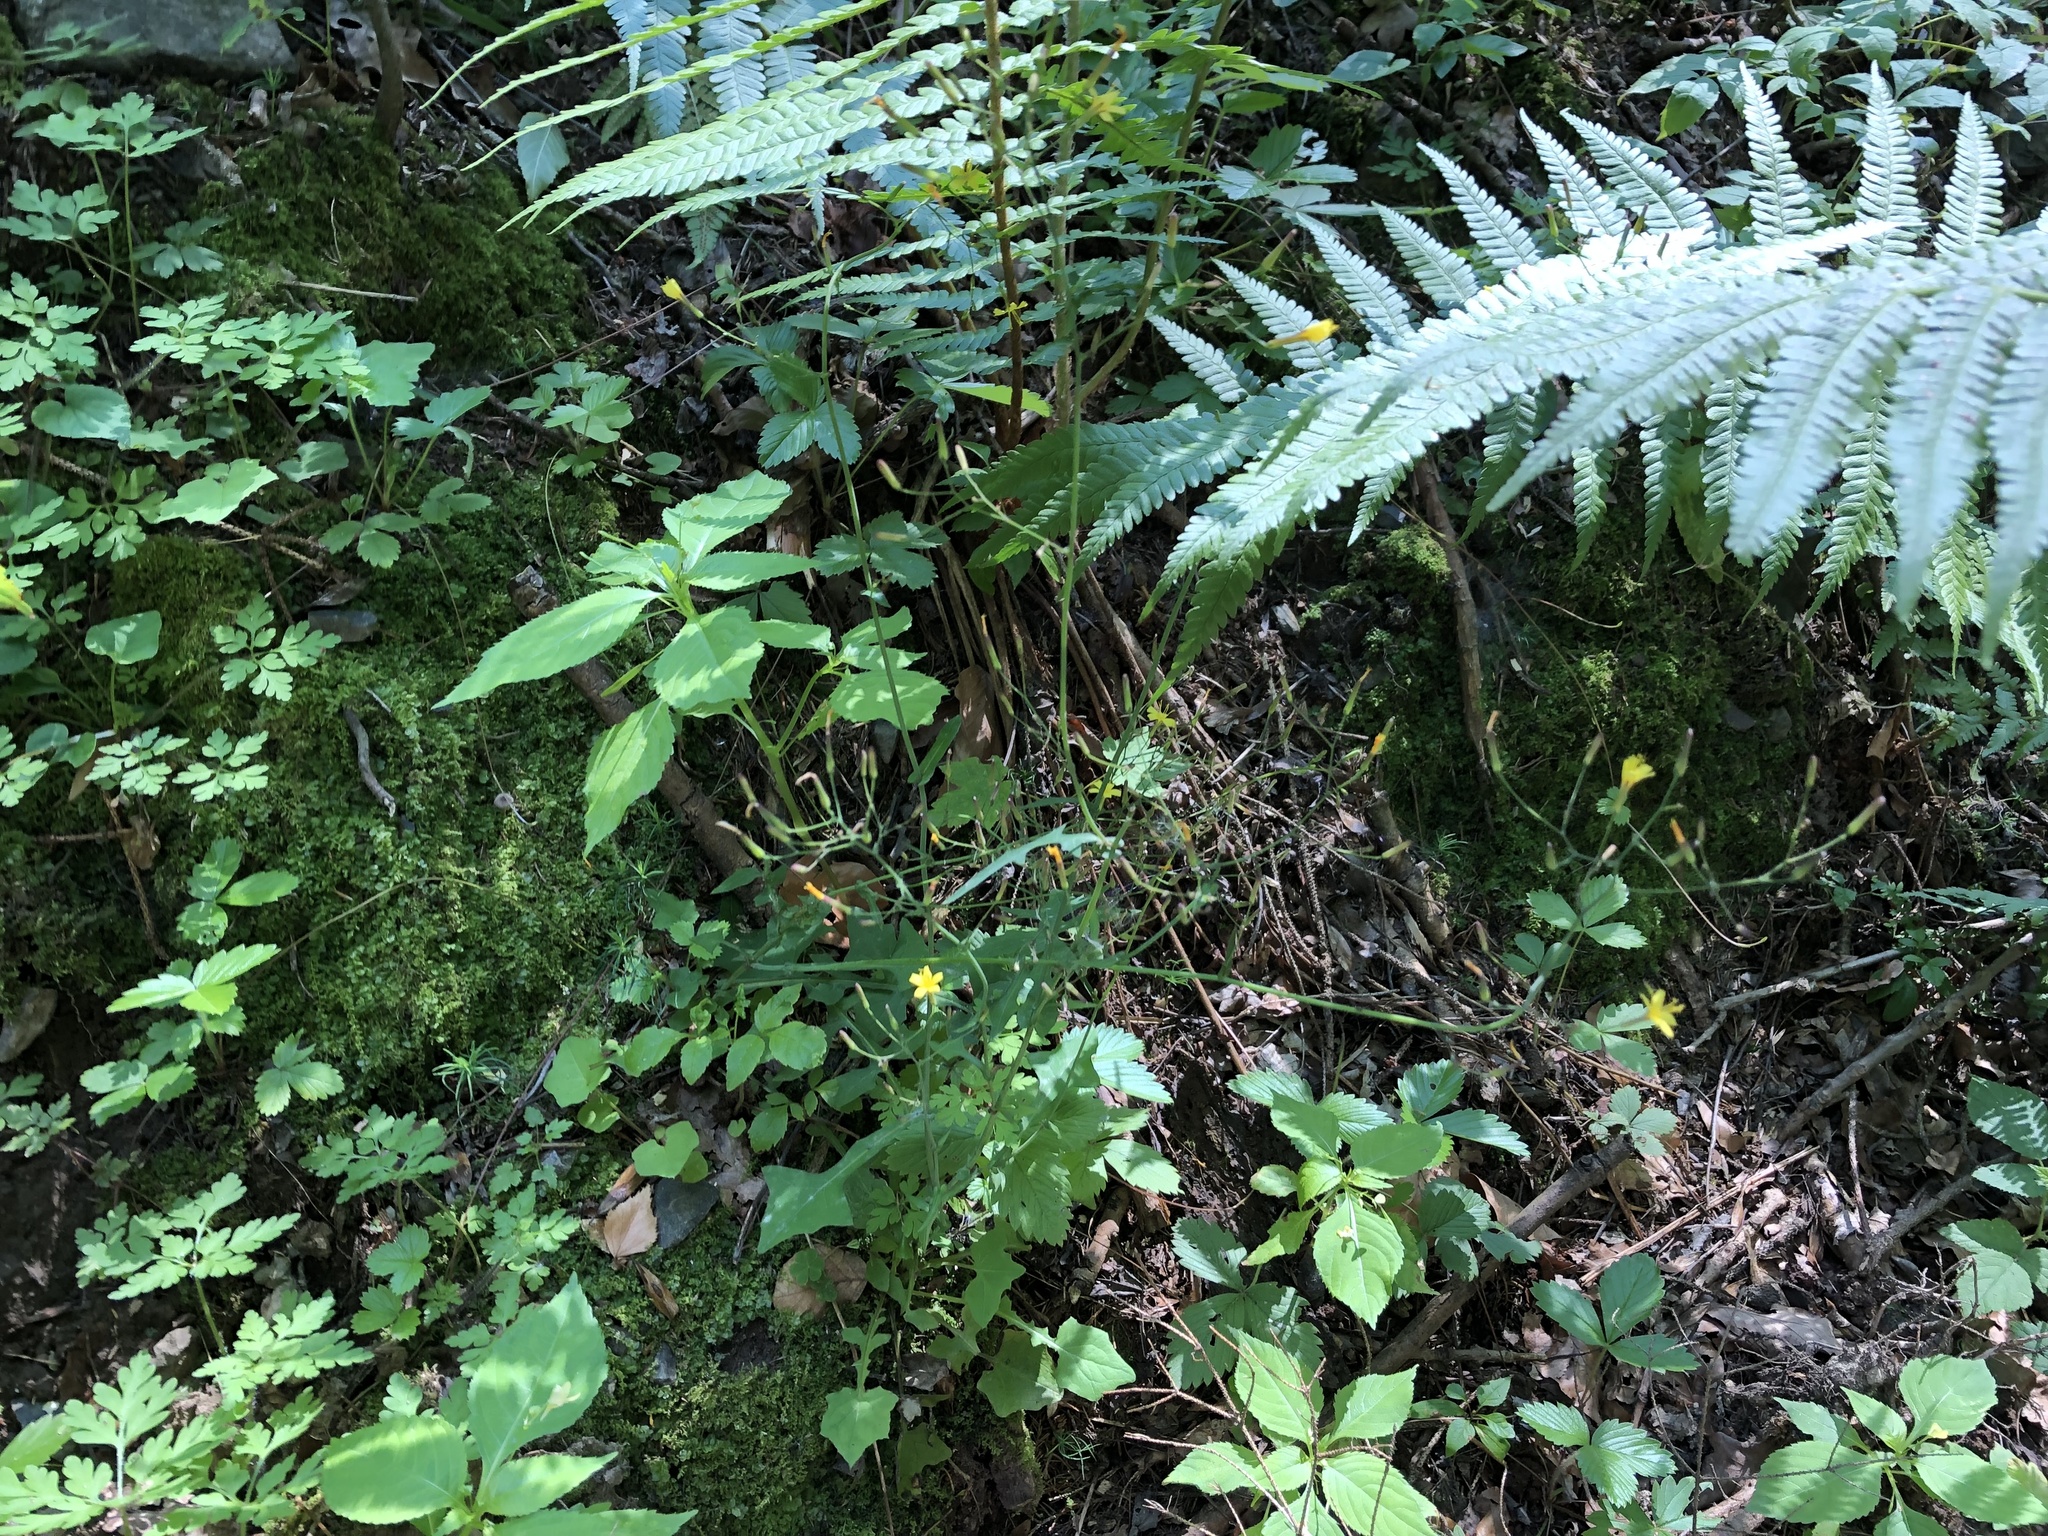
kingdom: Plantae
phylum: Tracheophyta
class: Magnoliopsida
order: Asterales
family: Asteraceae
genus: Mycelis
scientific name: Mycelis muralis
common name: Wall lettuce
